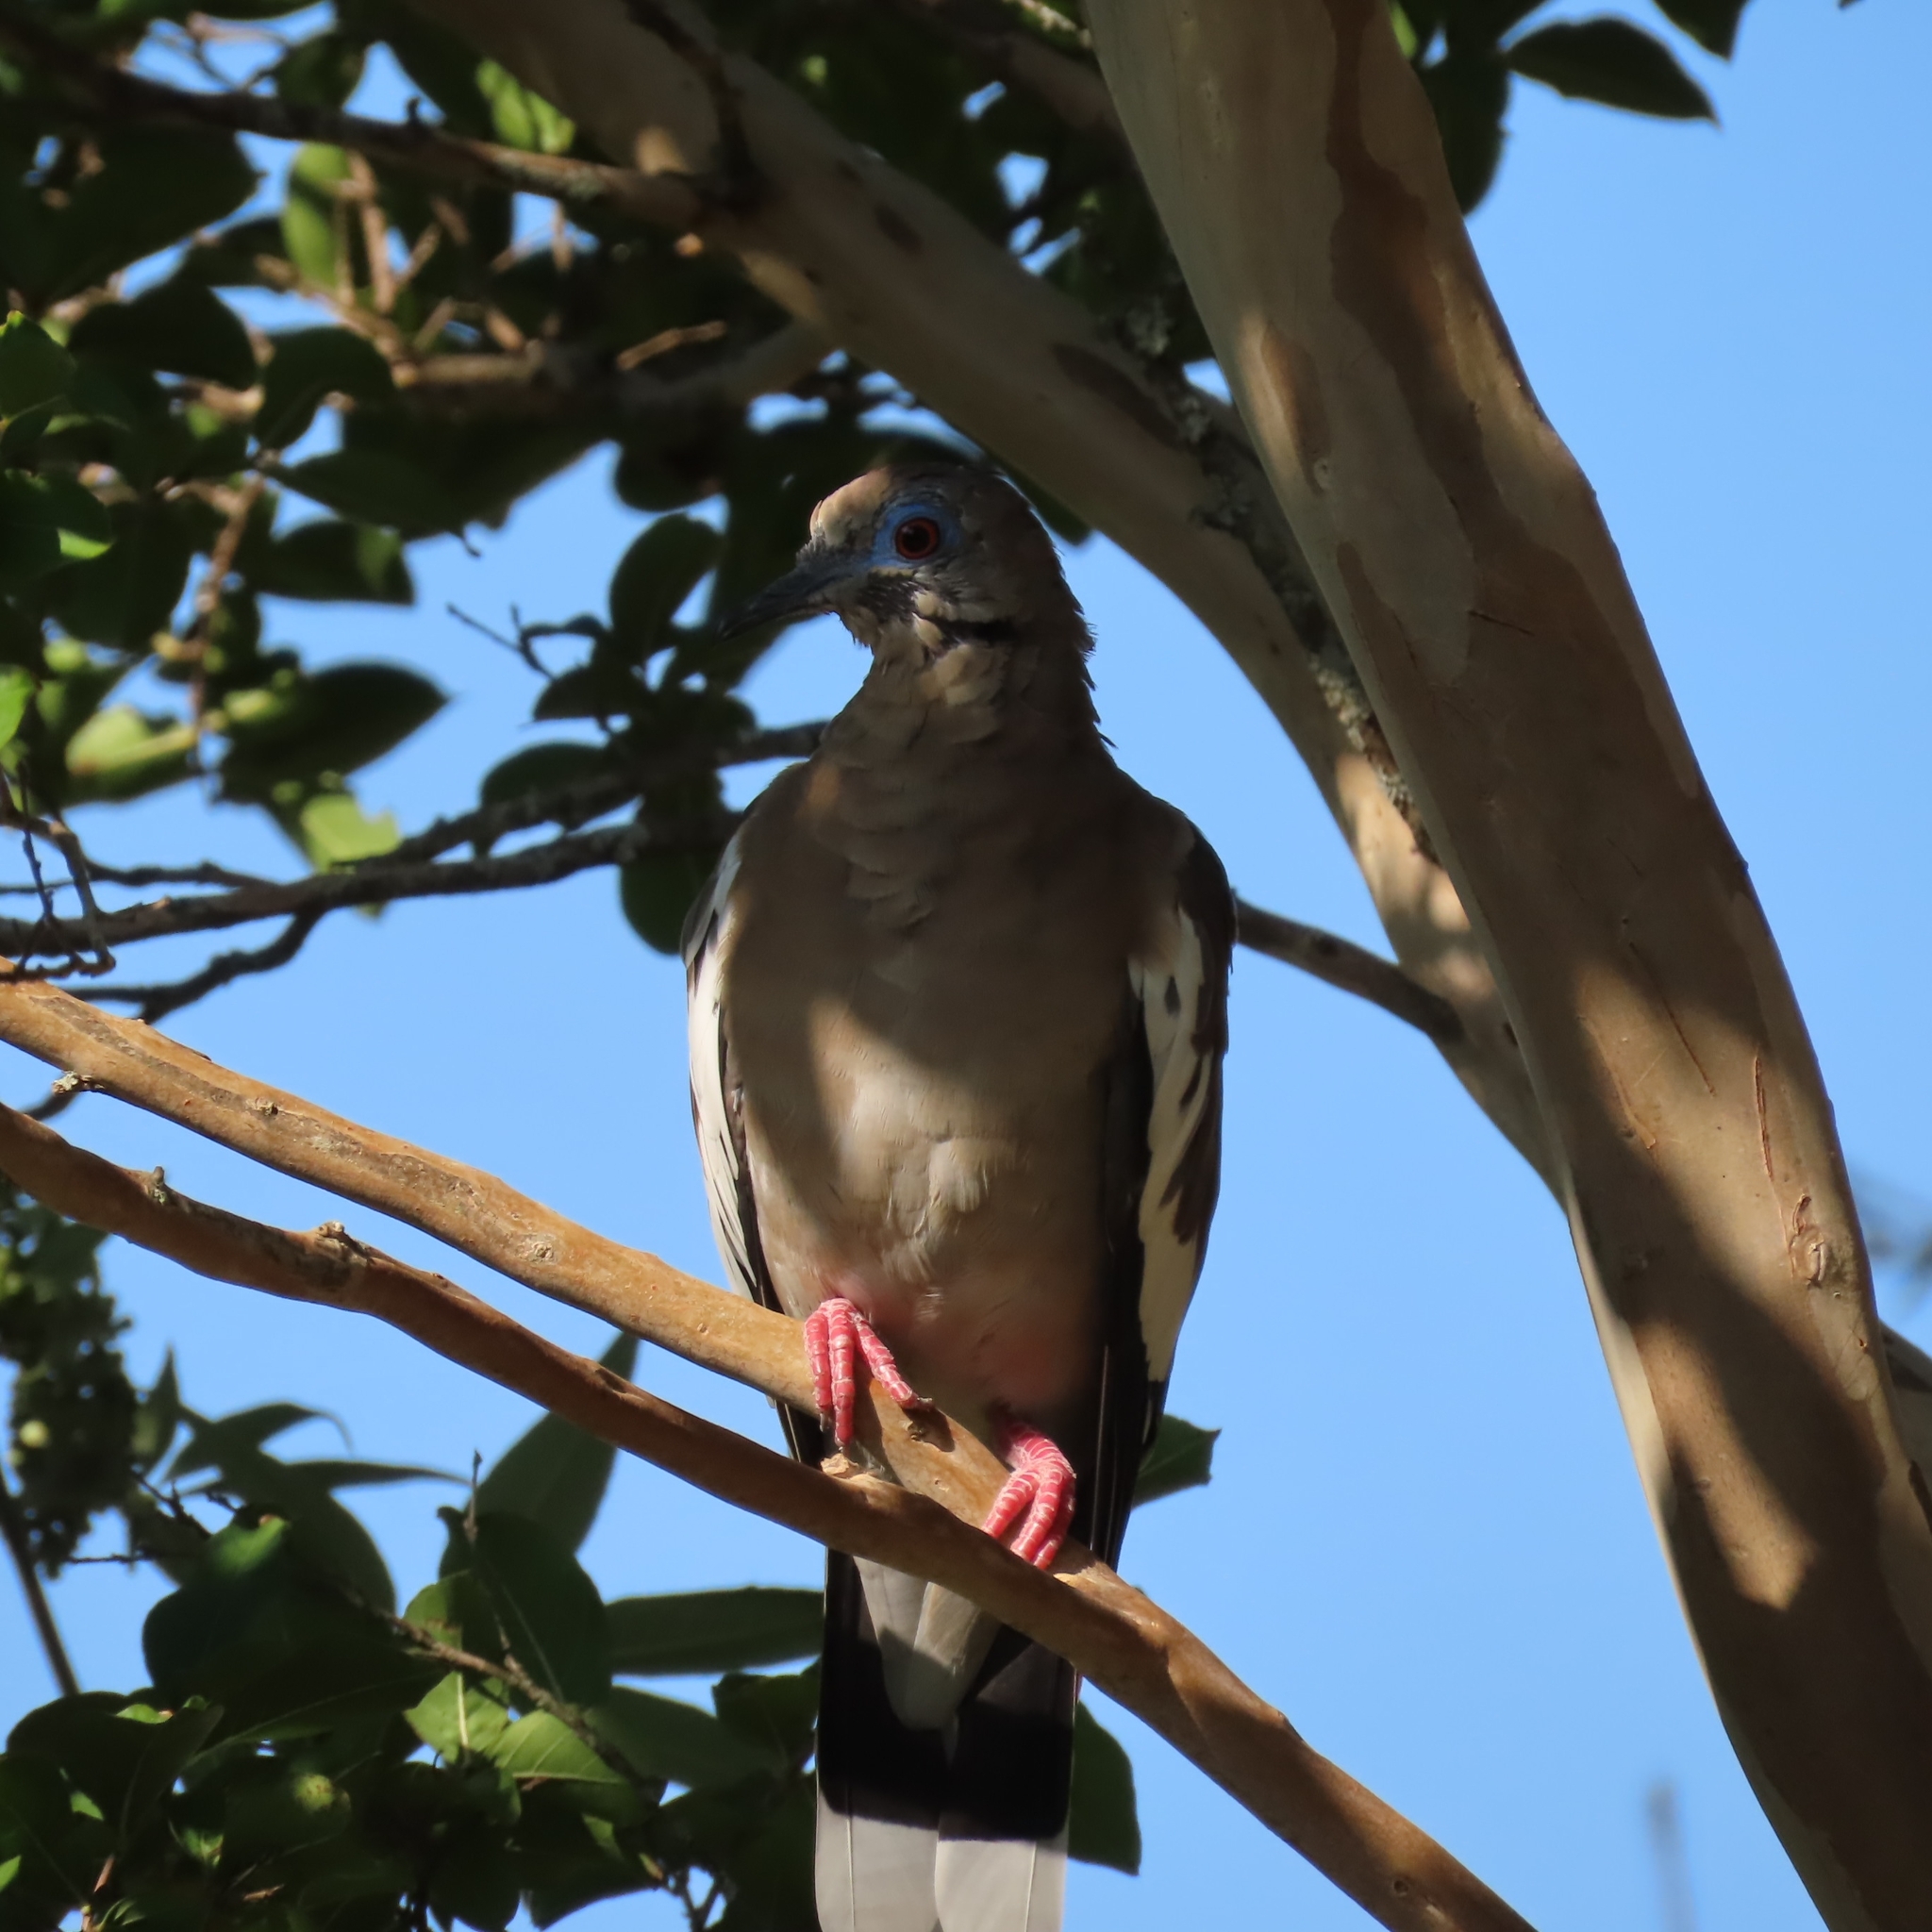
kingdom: Animalia
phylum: Chordata
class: Aves
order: Columbiformes
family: Columbidae
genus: Zenaida
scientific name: Zenaida asiatica
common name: White-winged dove
